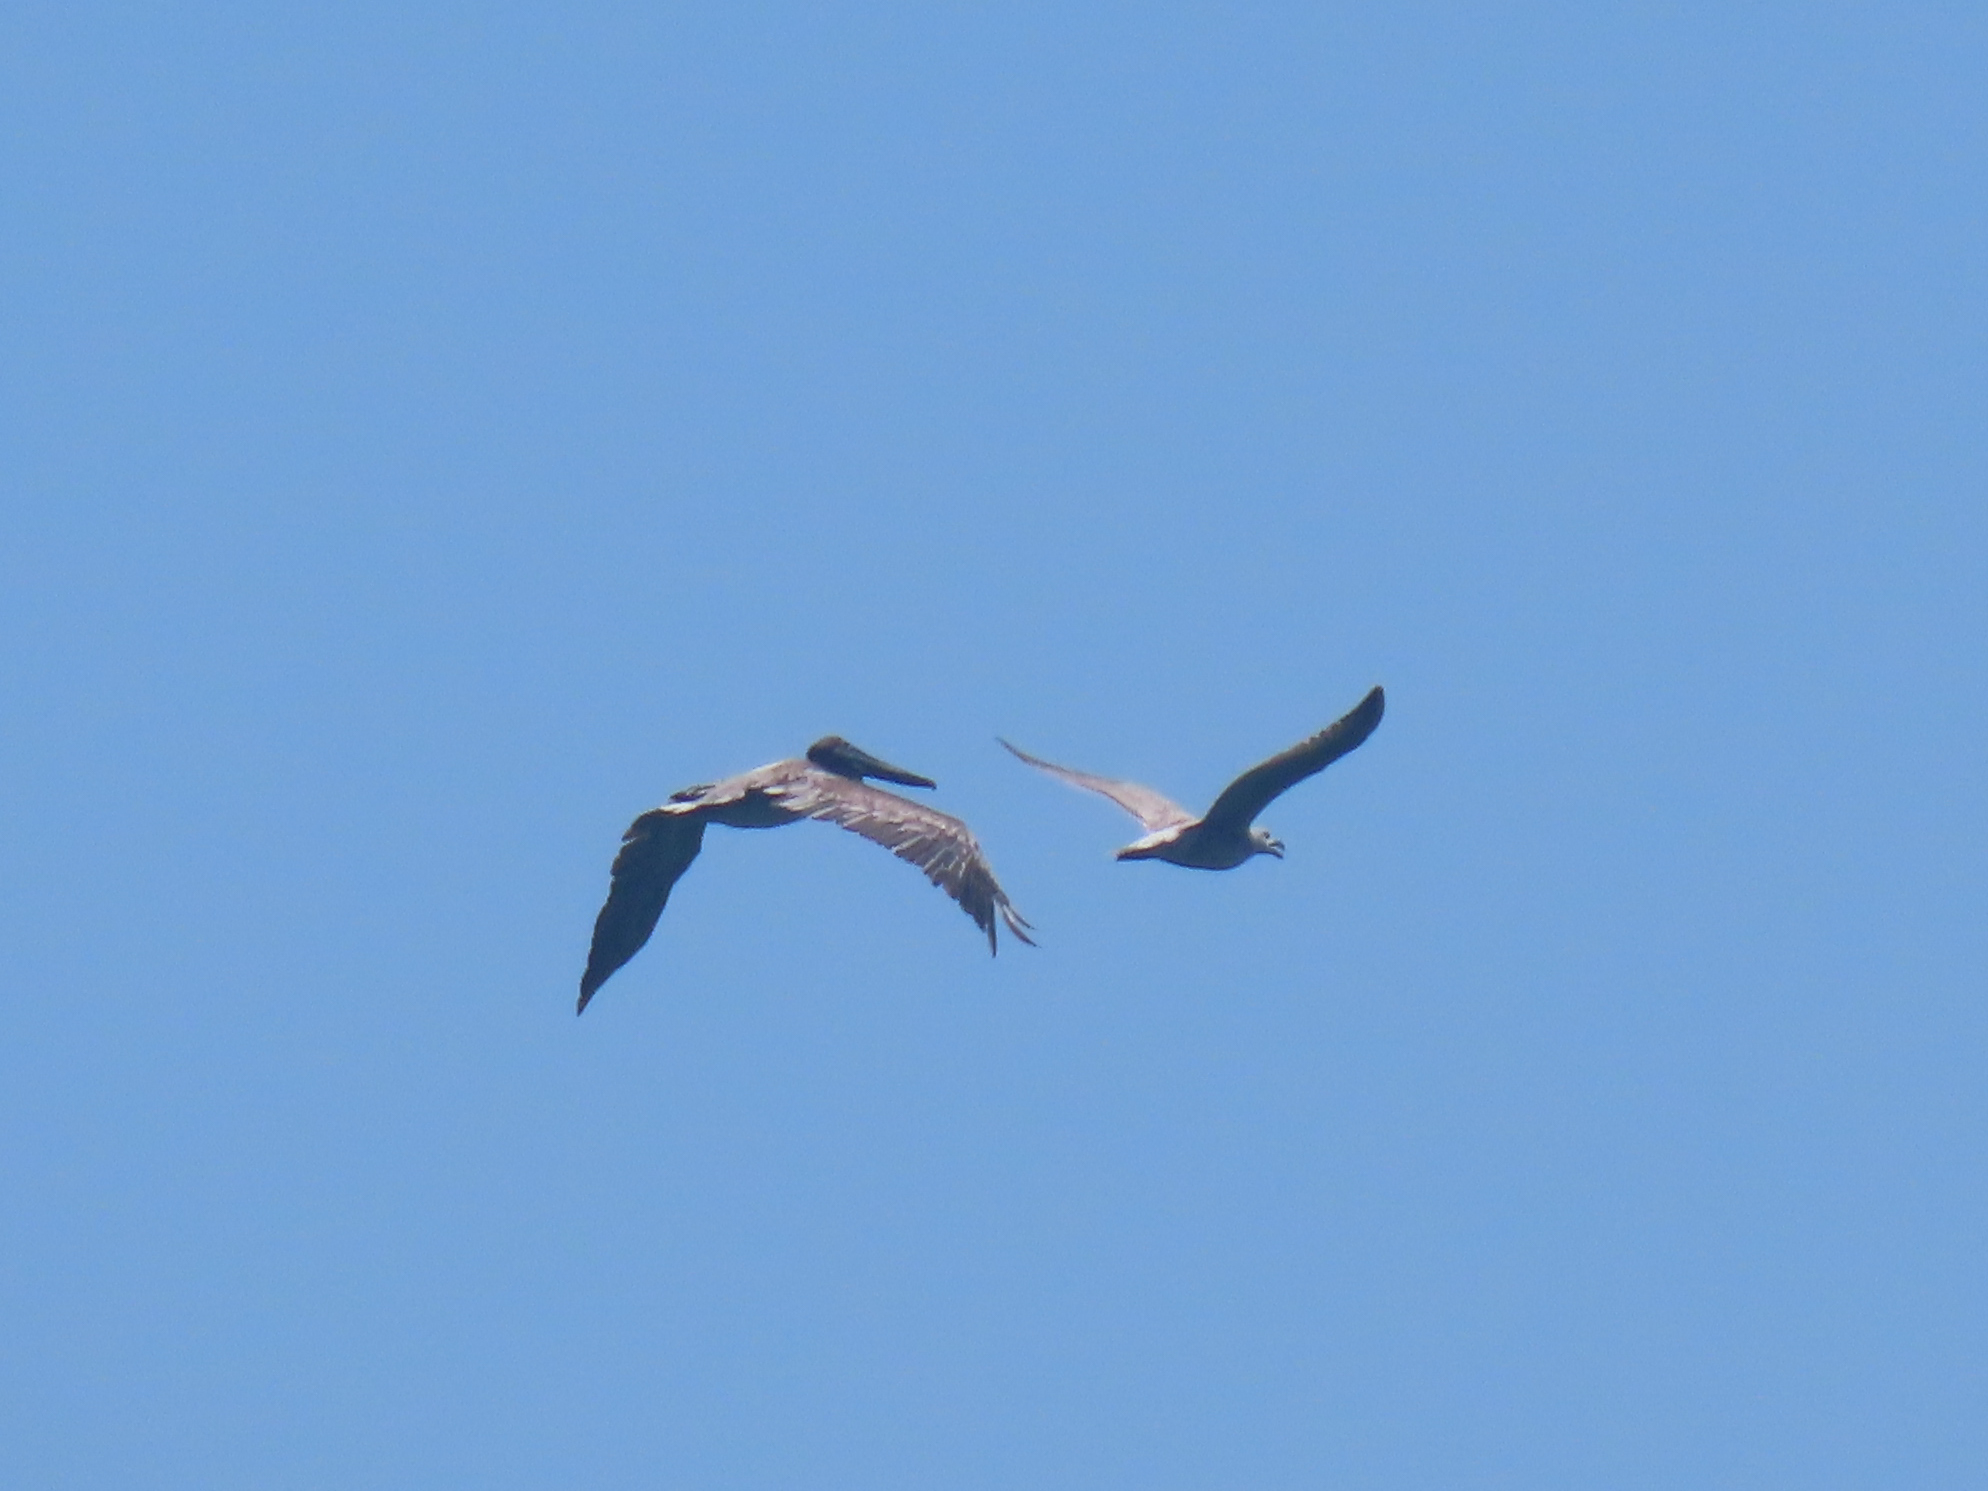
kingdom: Animalia
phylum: Chordata
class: Aves
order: Pelecaniformes
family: Pelecanidae
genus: Pelecanus
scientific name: Pelecanus occidentalis
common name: Brown pelican
